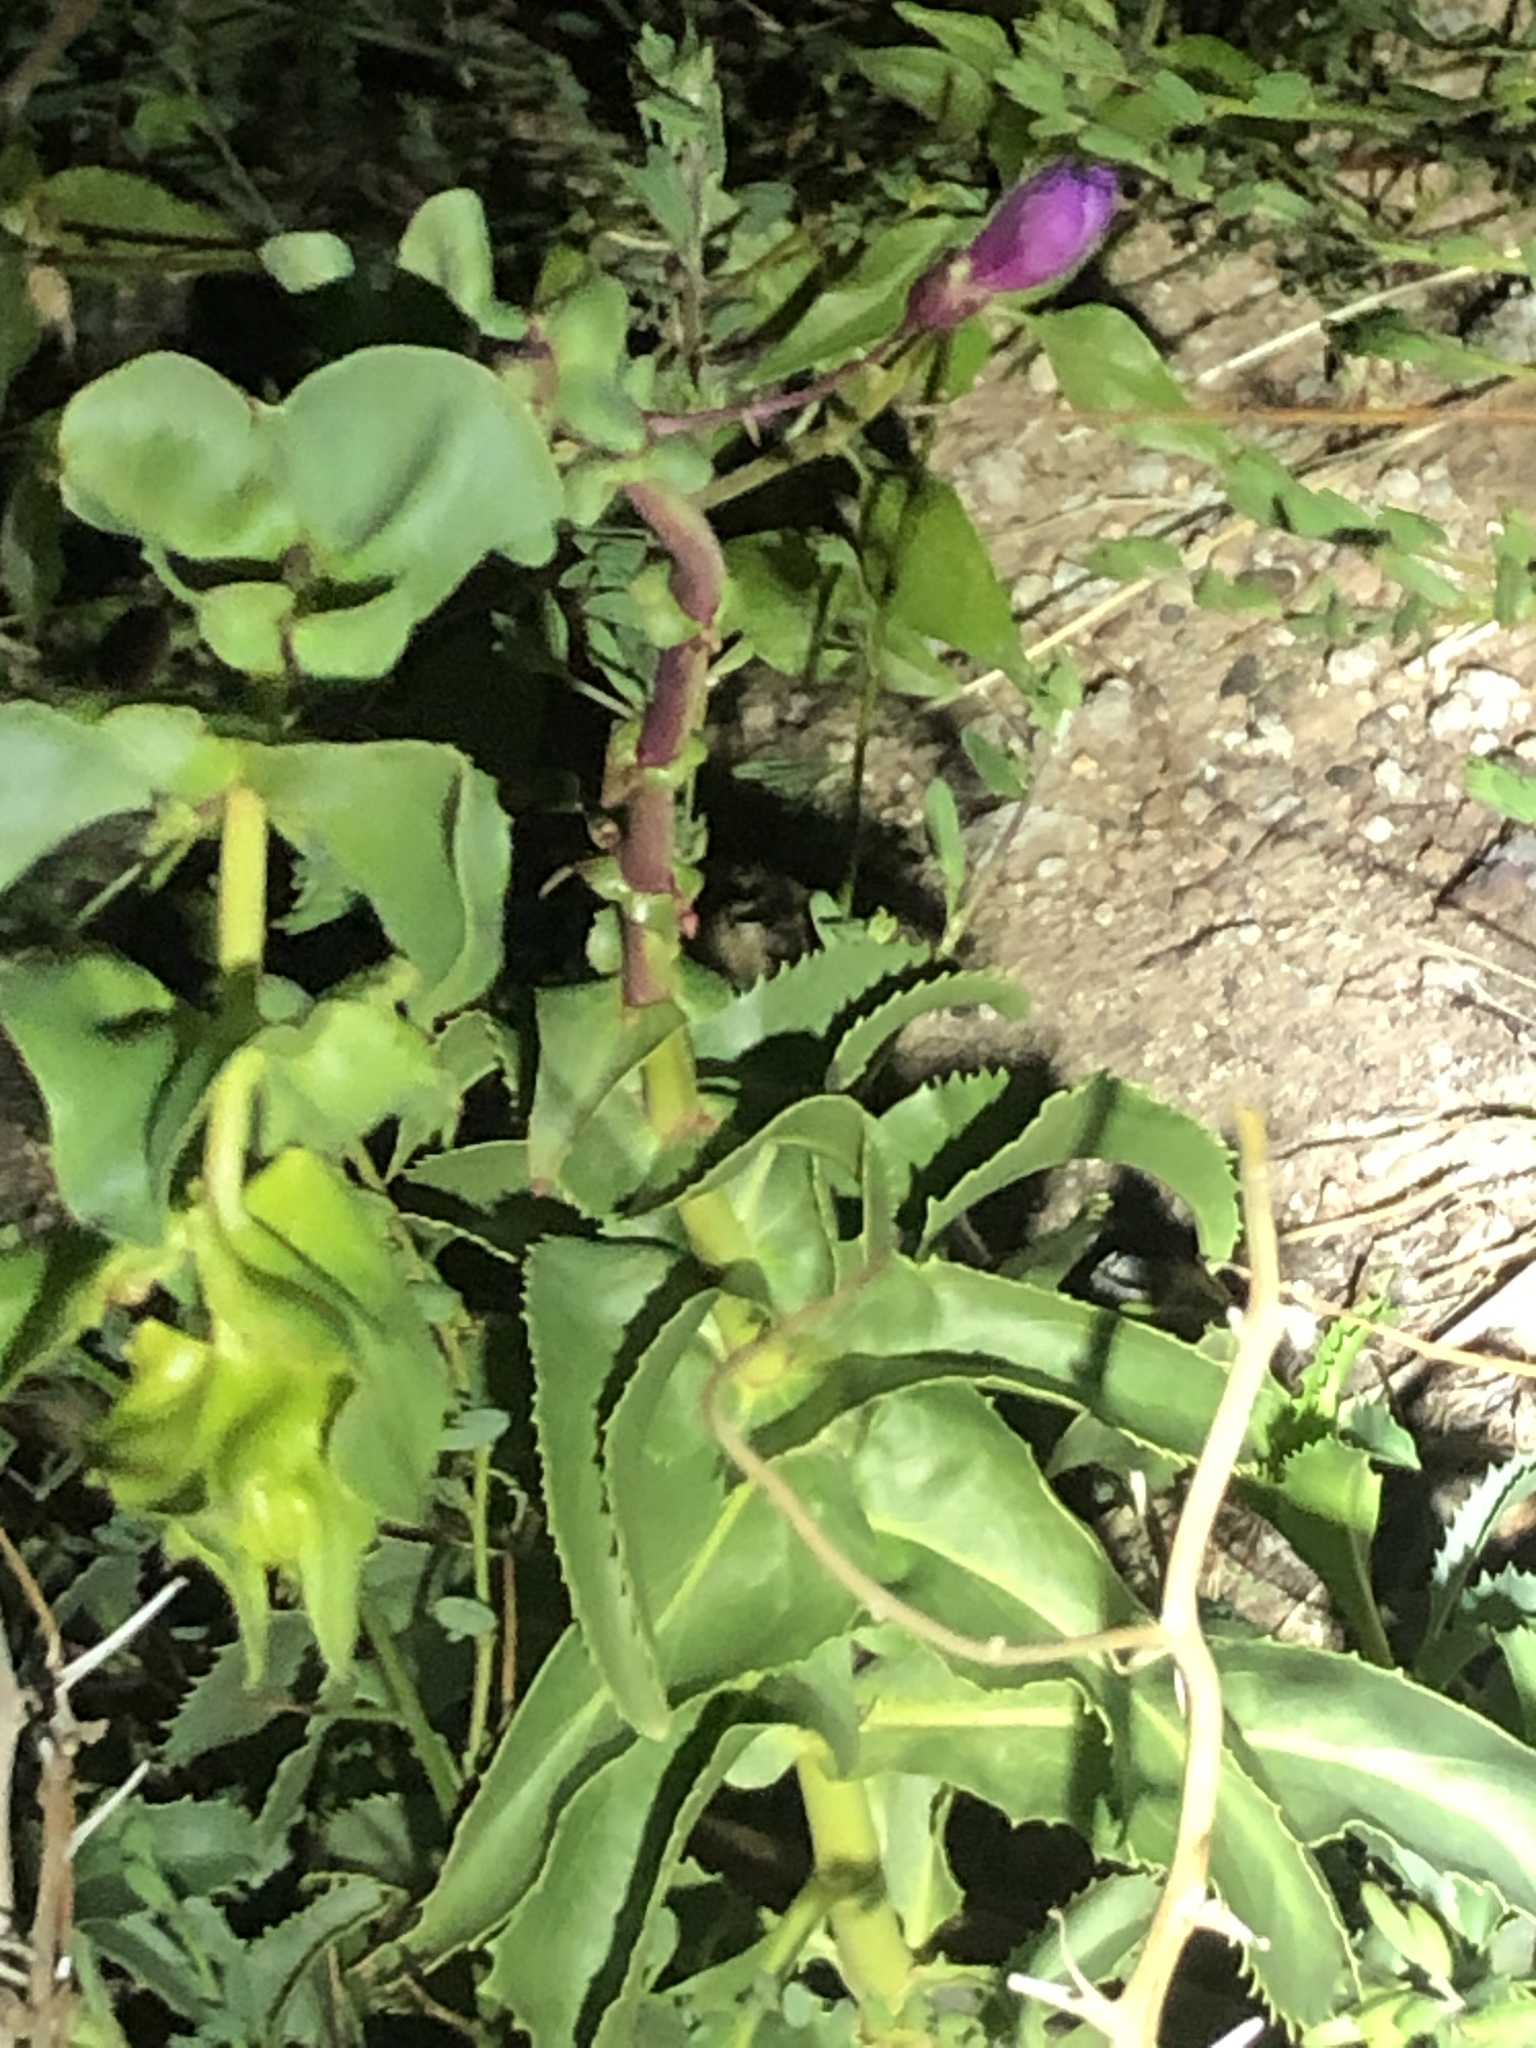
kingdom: Plantae
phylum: Tracheophyta
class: Magnoliopsida
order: Lamiales
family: Plantaginaceae
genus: Penstemon
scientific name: Penstemon spectabilis
